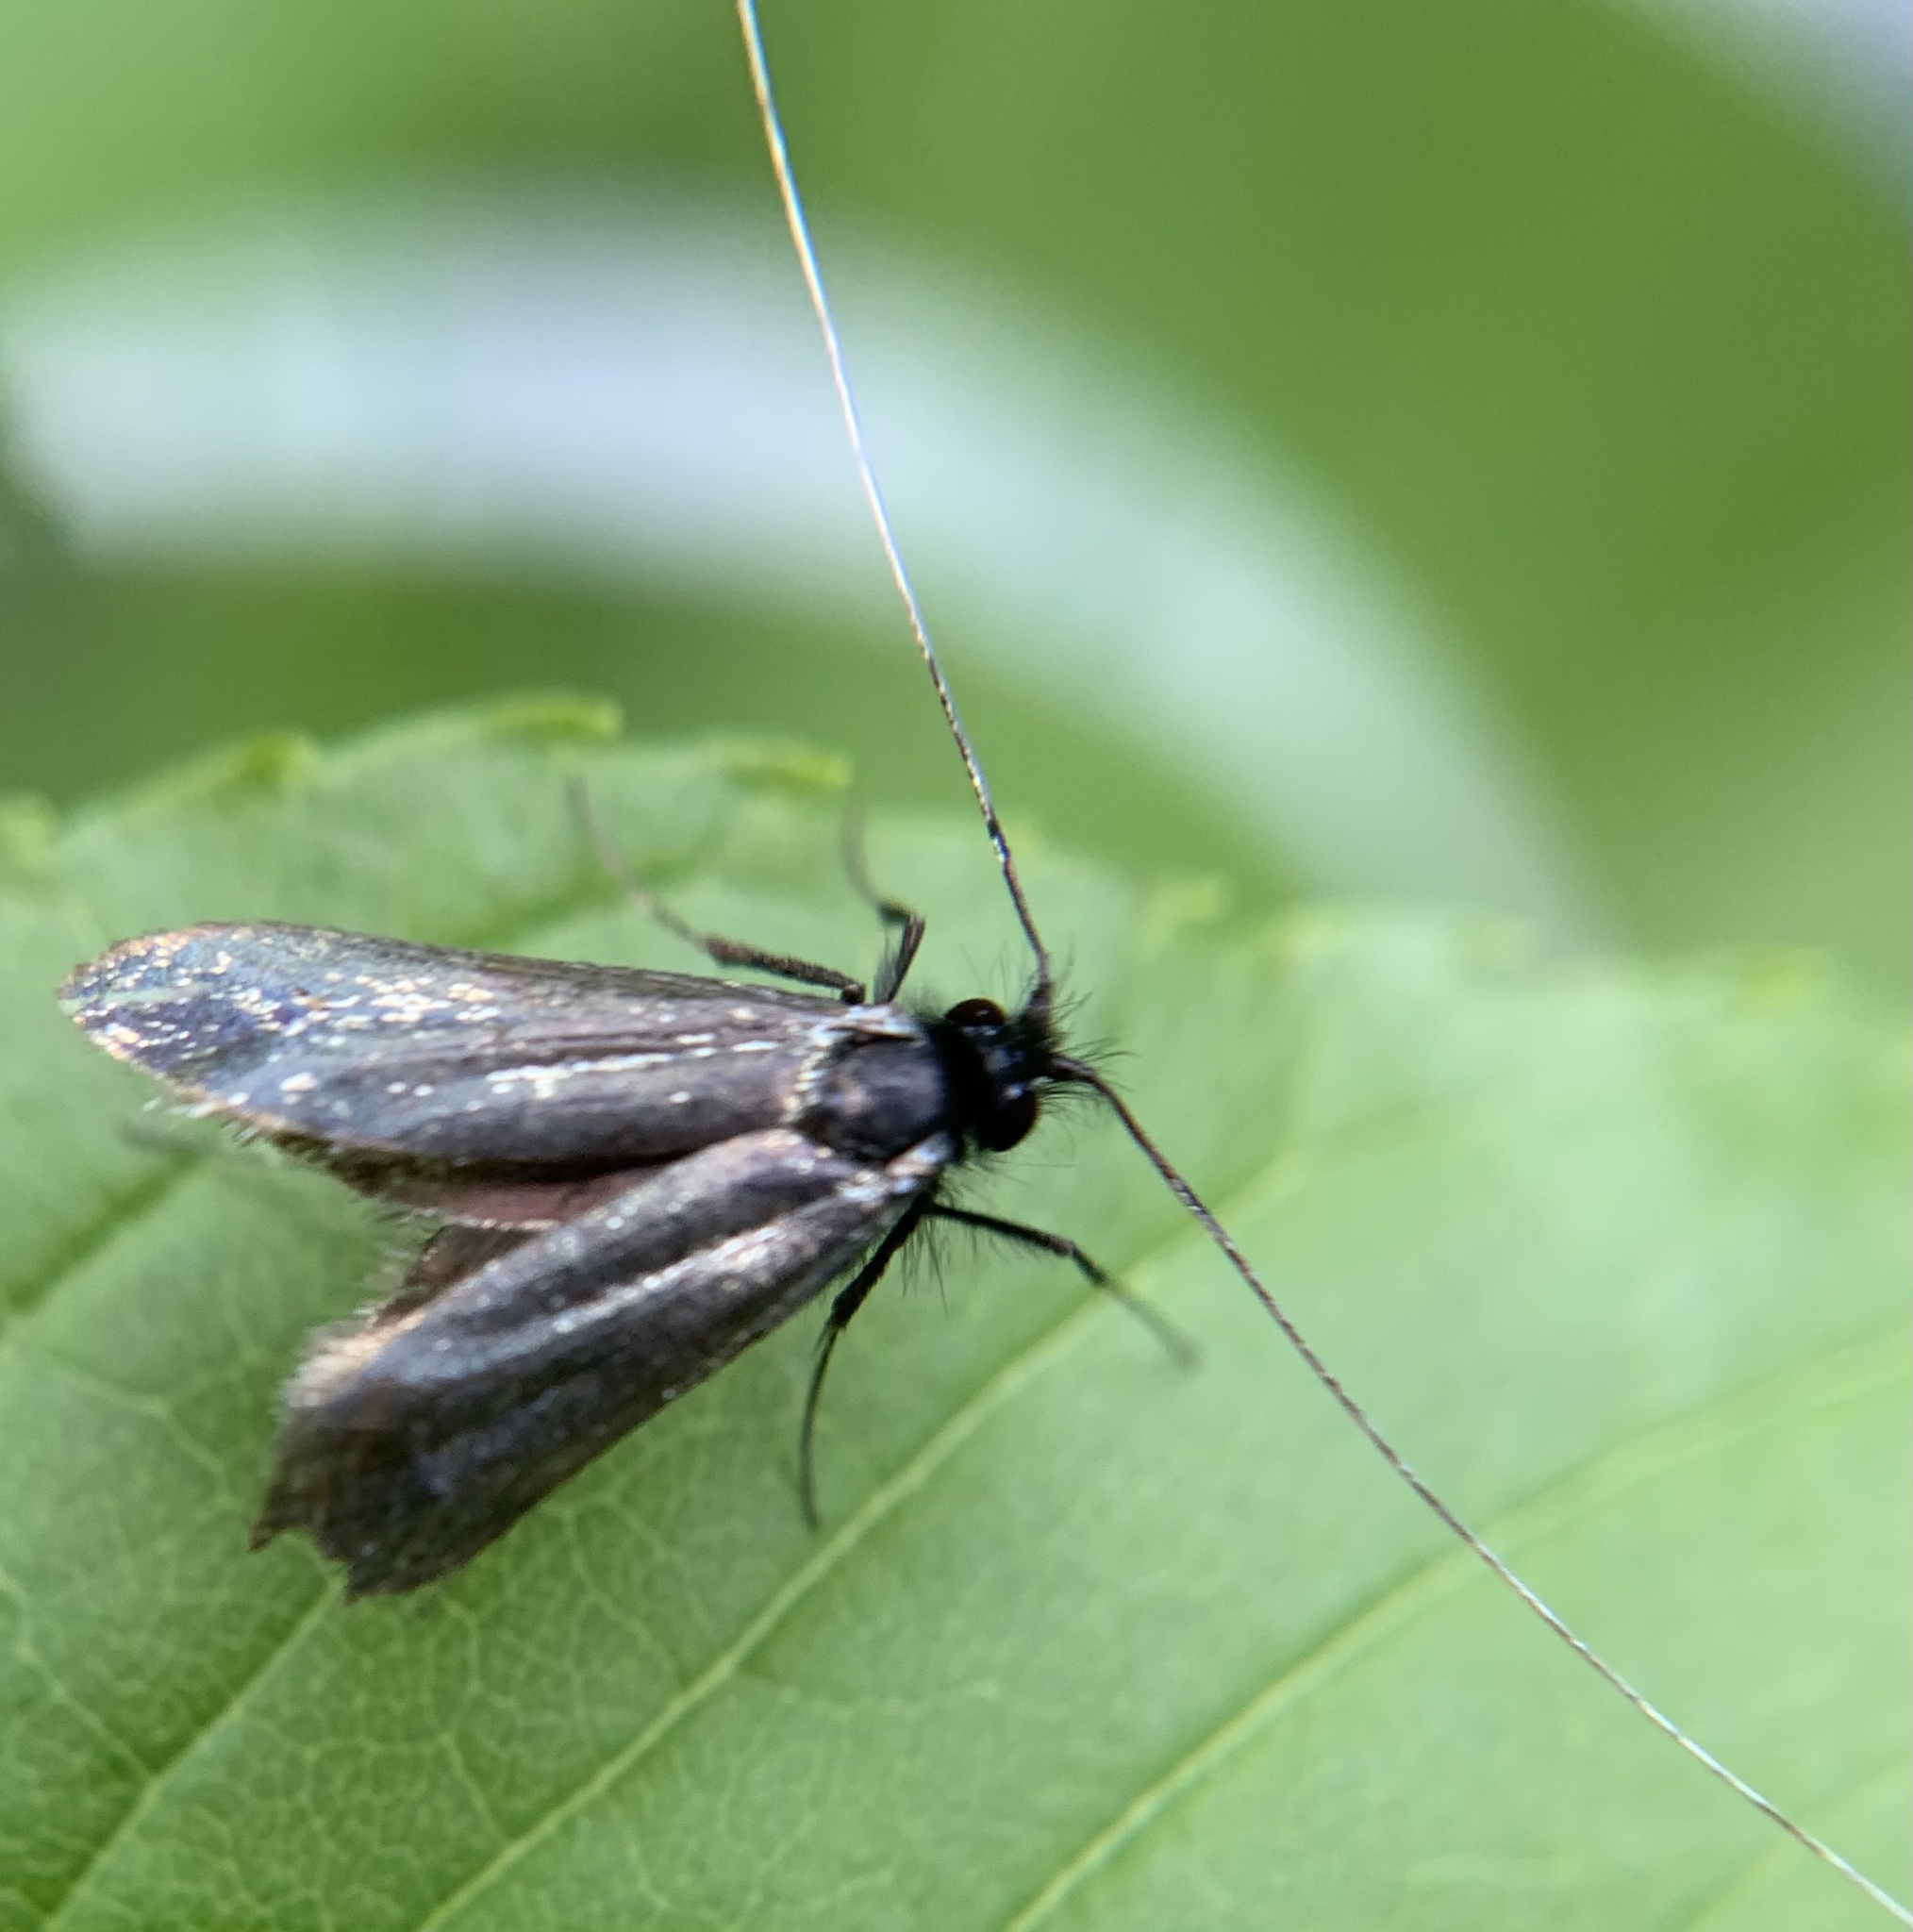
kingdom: Animalia
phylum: Arthropoda
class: Insecta
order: Lepidoptera
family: Adelidae
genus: Adela
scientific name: Adela viridella
